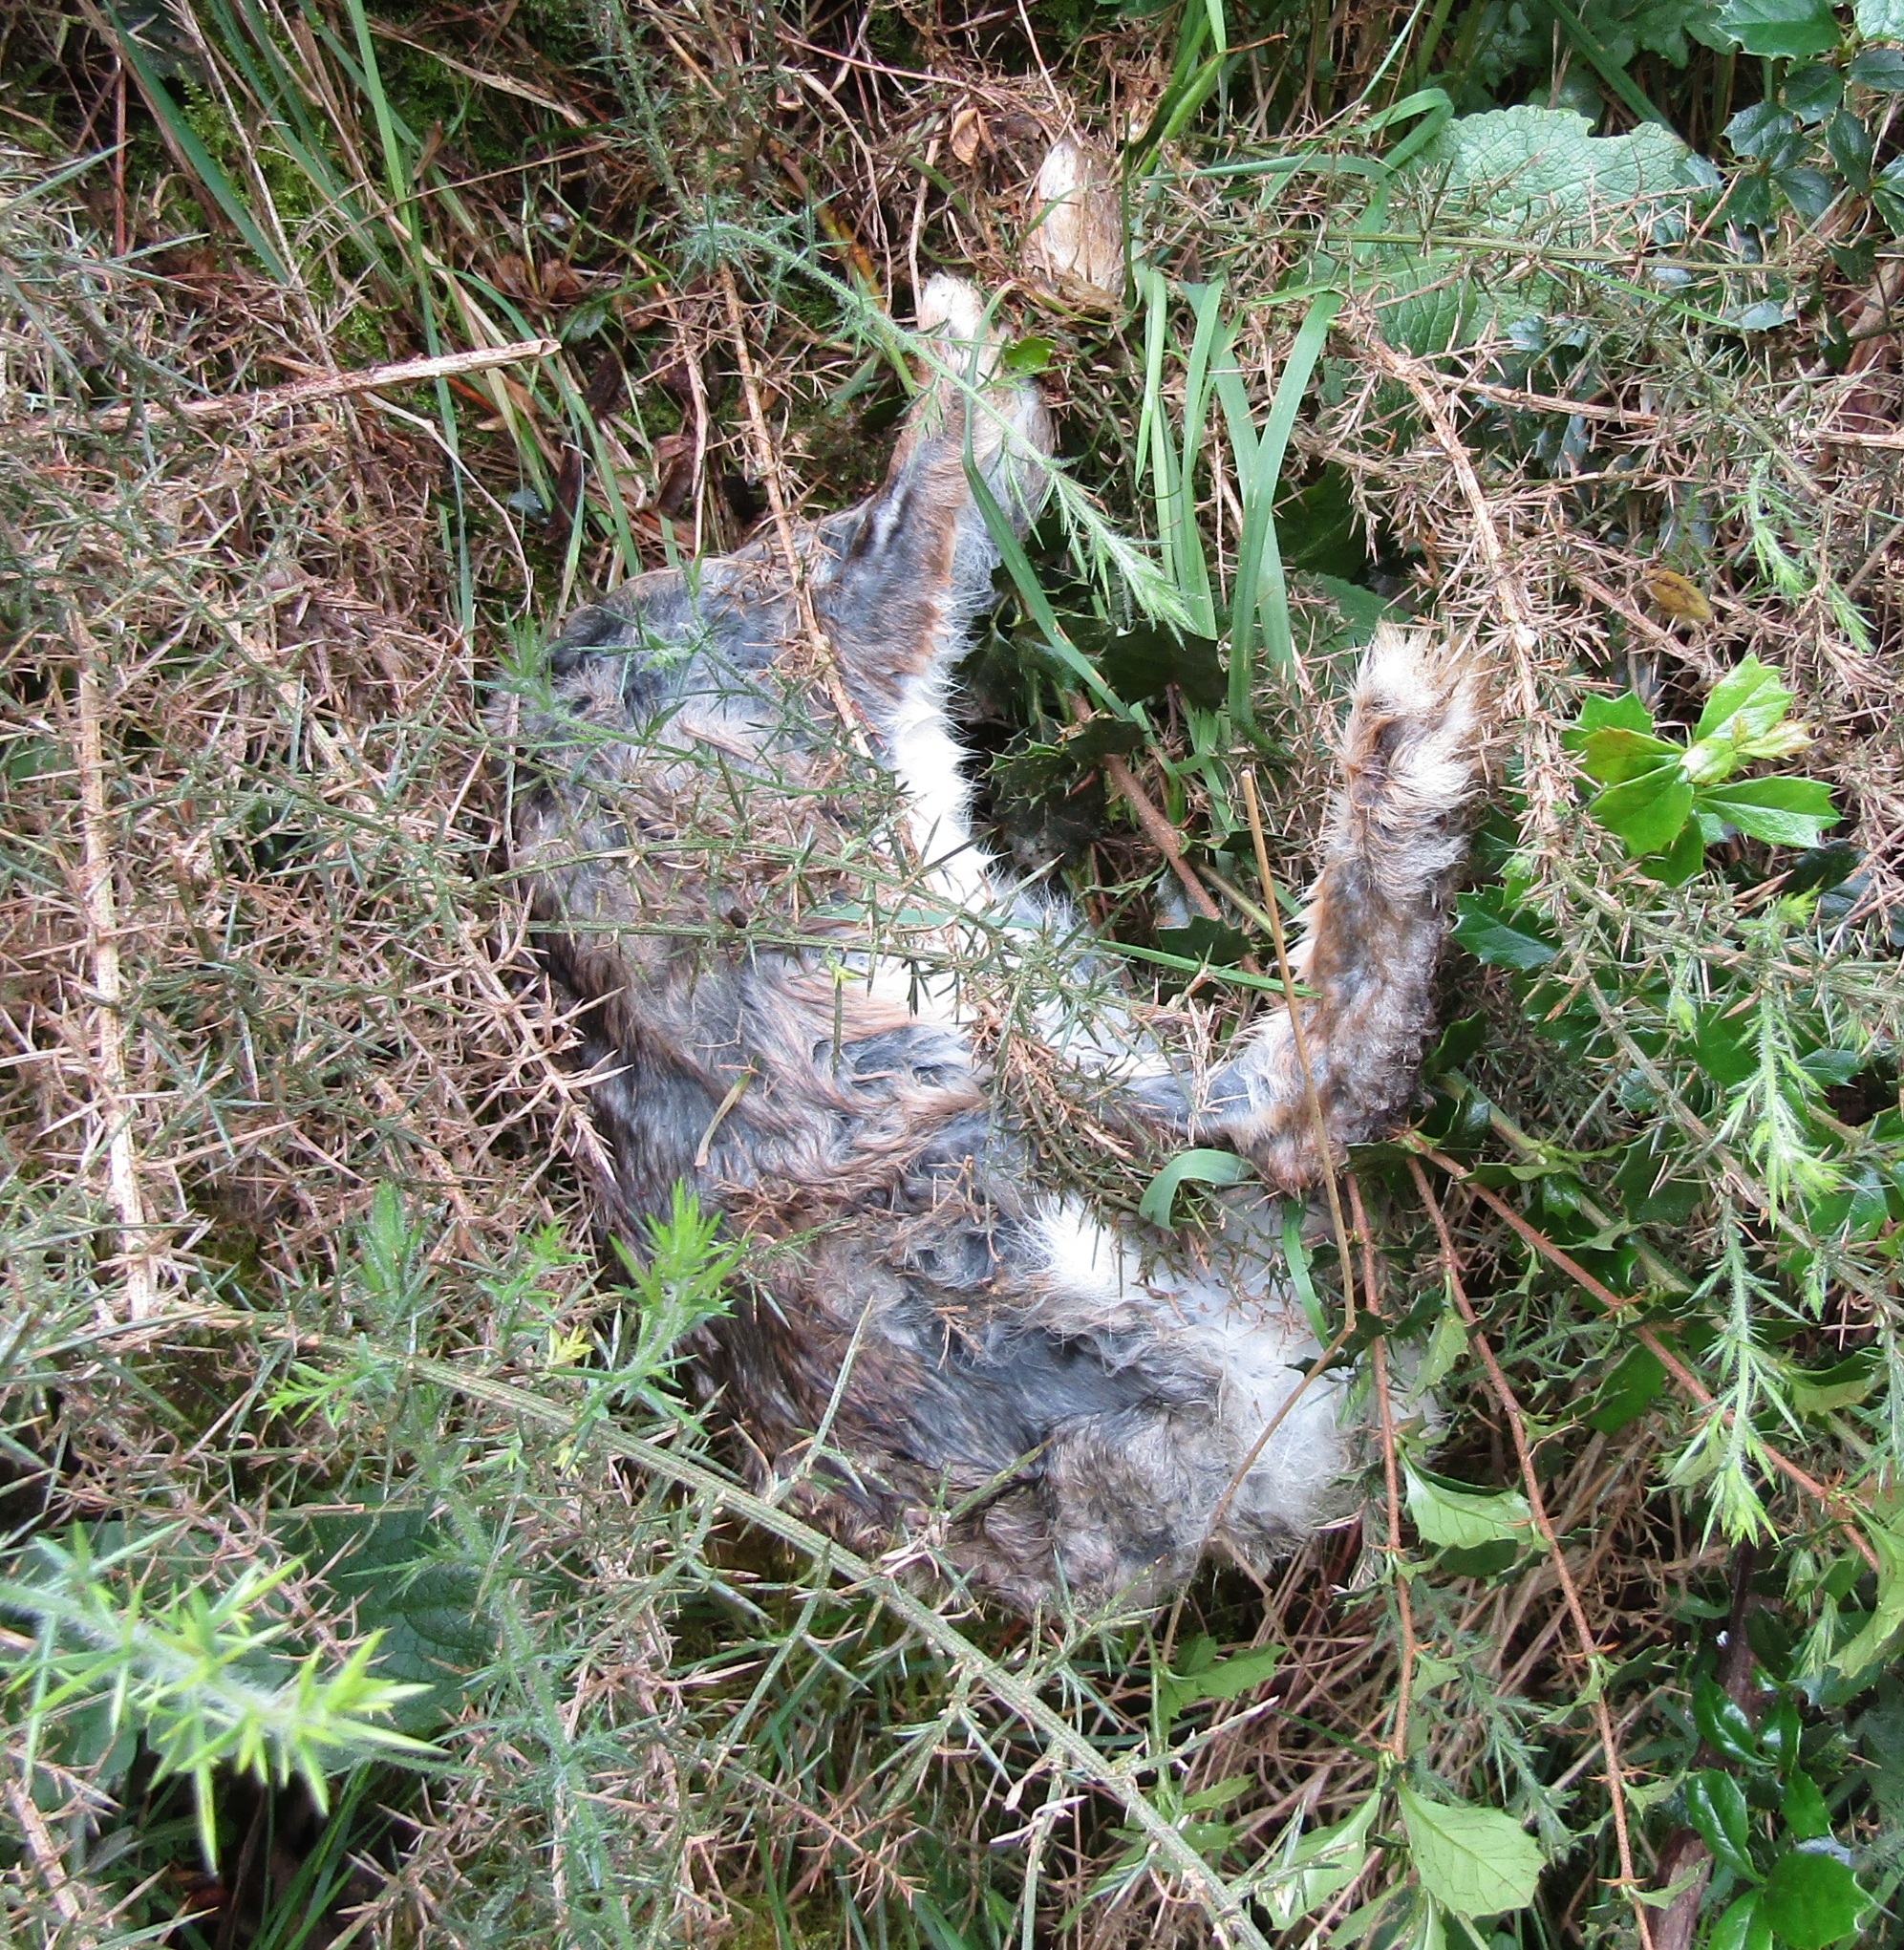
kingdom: Animalia
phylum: Chordata
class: Mammalia
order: Lagomorpha
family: Leporidae
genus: Oryctolagus
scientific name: Oryctolagus cuniculus
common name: European rabbit
